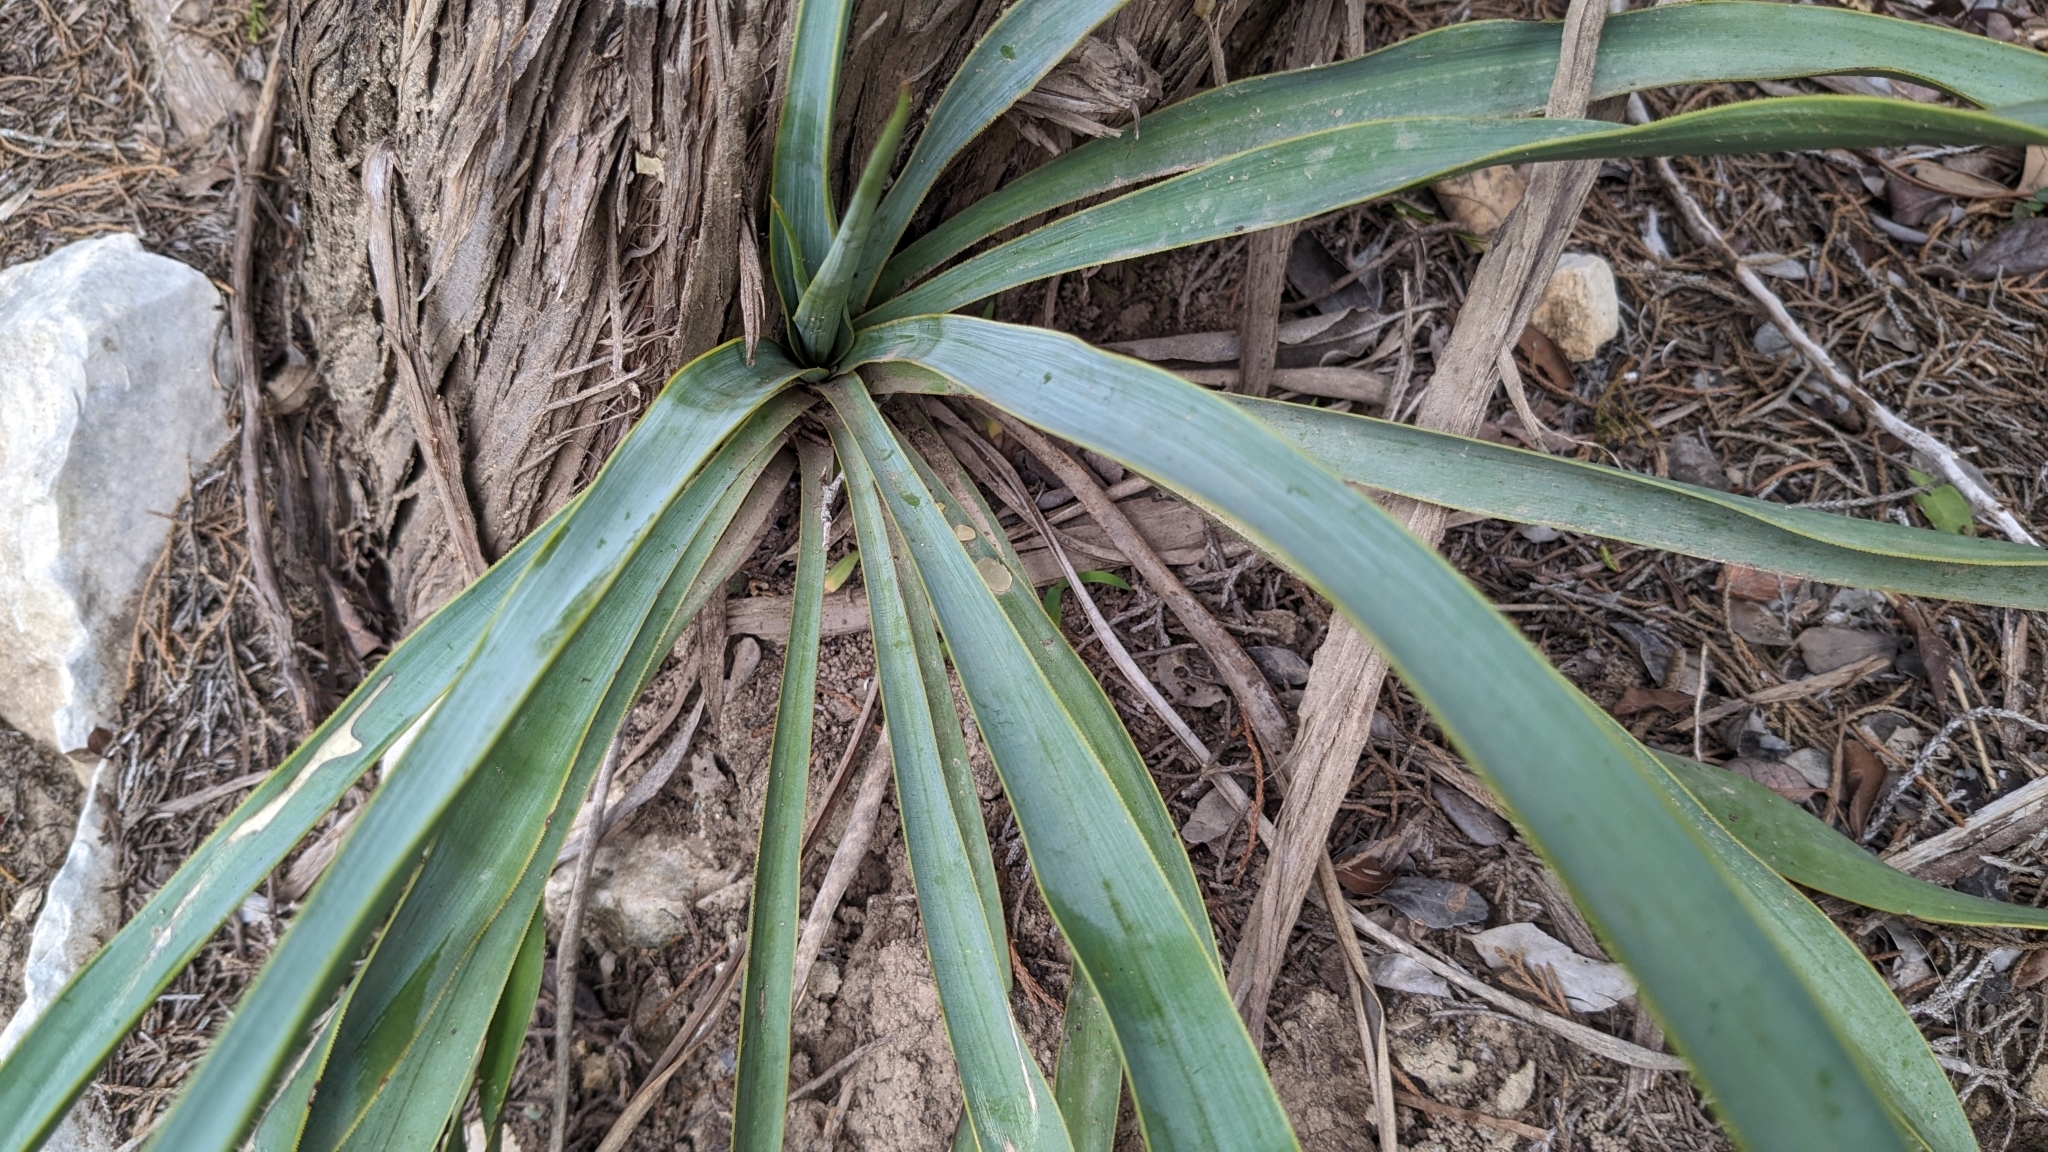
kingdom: Plantae
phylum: Tracheophyta
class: Liliopsida
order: Asparagales
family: Asparagaceae
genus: Yucca
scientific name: Yucca rupicola
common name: Twisted-leaf spanish-dagger
